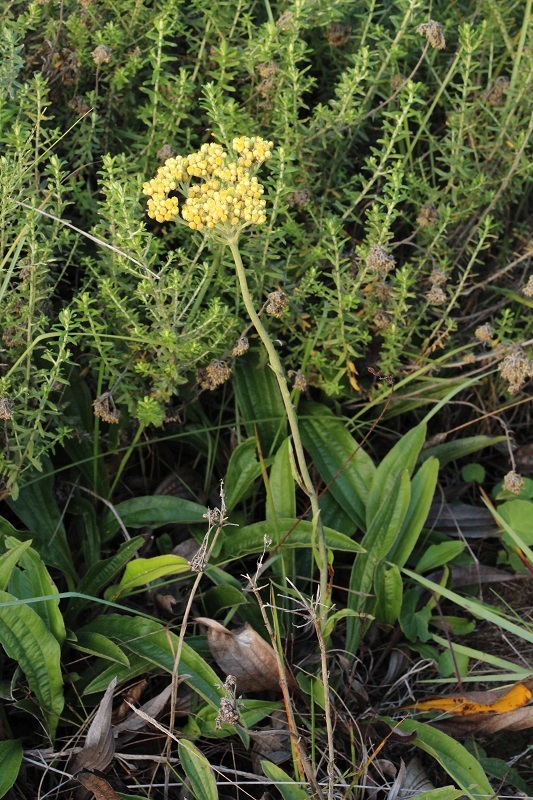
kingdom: Plantae
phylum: Tracheophyta
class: Magnoliopsida
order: Asterales
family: Asteraceae
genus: Helichrysum
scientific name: Helichrysum nudifolium
